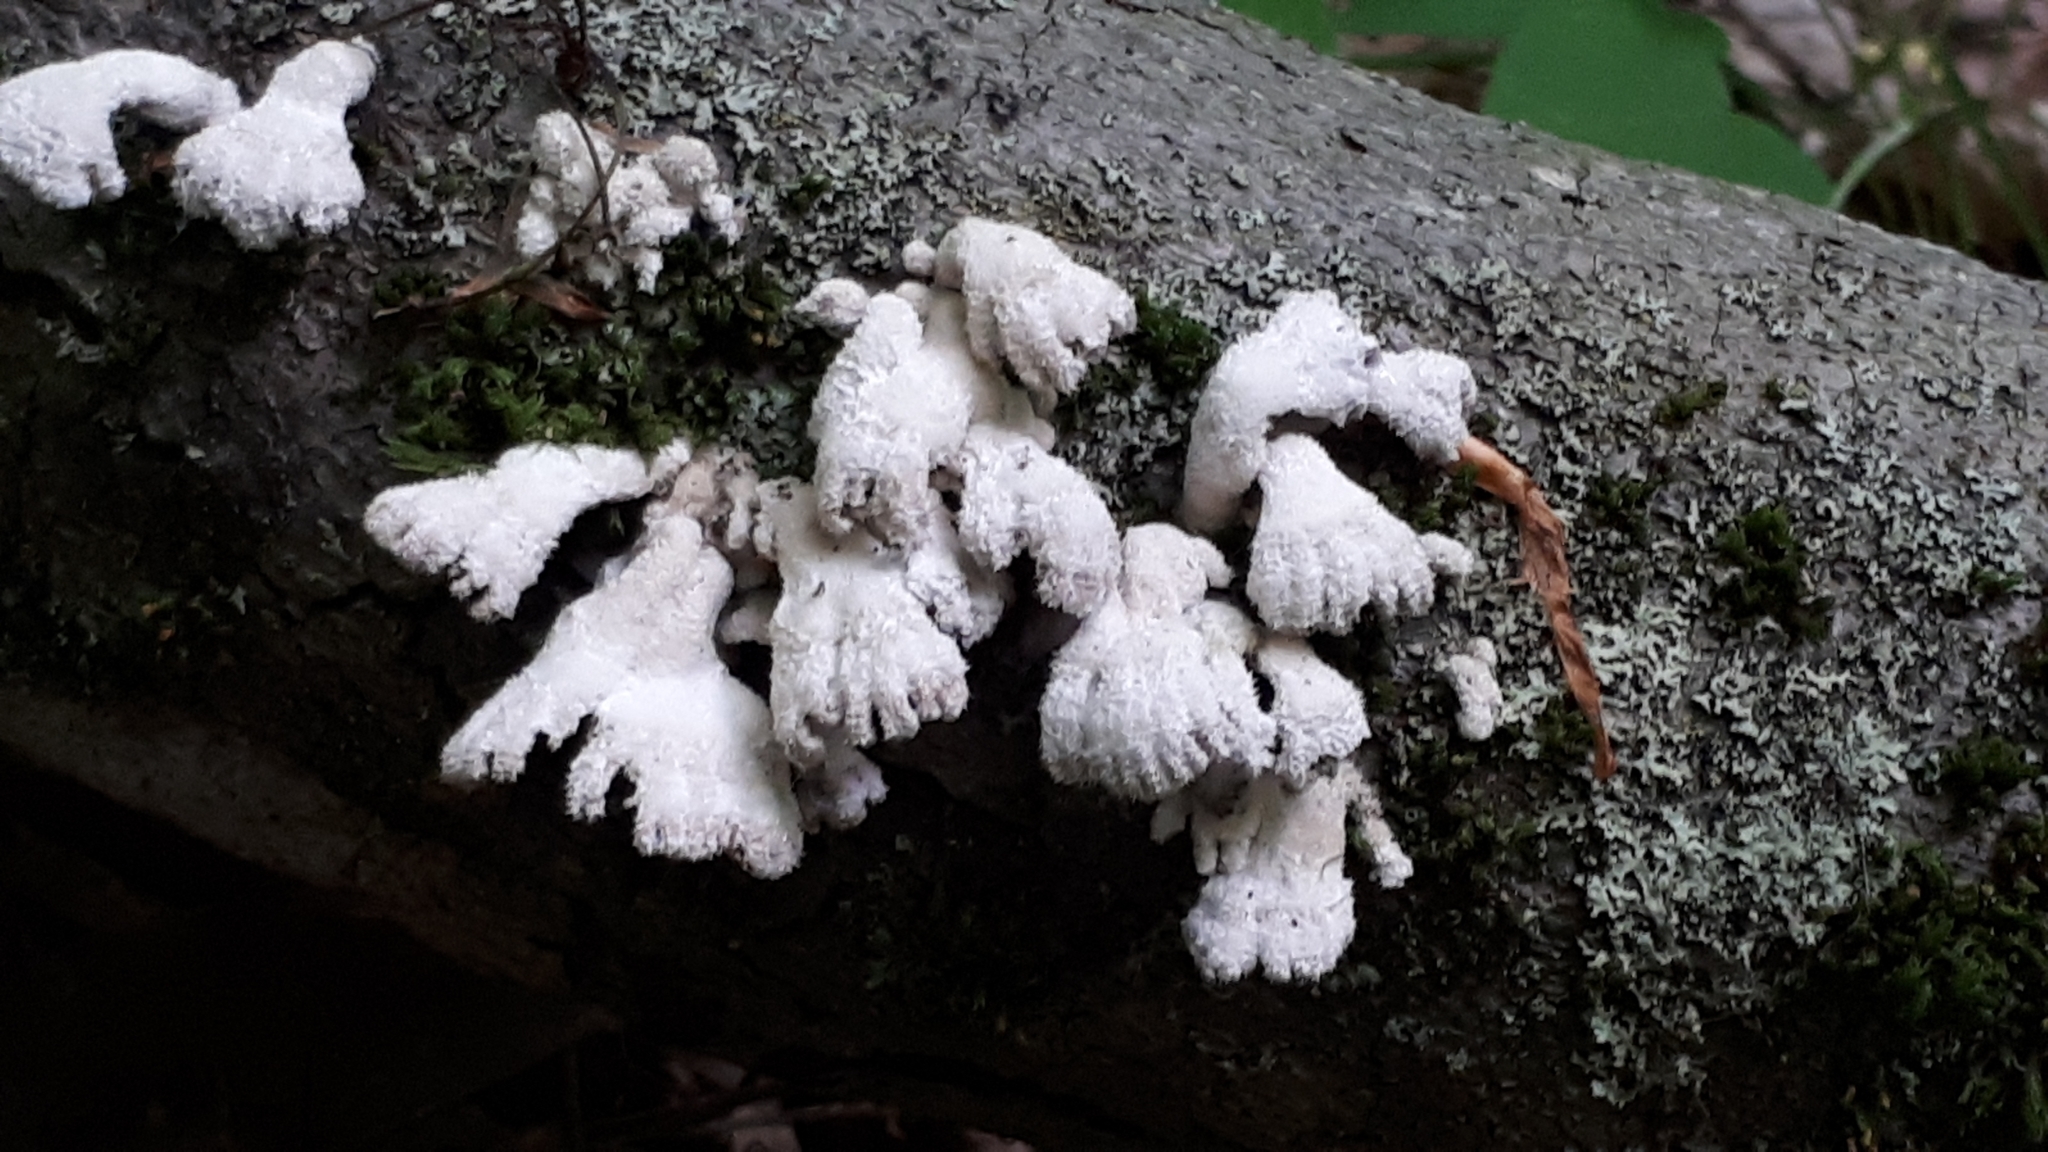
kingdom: Fungi
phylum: Basidiomycota
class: Agaricomycetes
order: Agaricales
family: Schizophyllaceae
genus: Schizophyllum
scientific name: Schizophyllum commune
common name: Common porecrust
